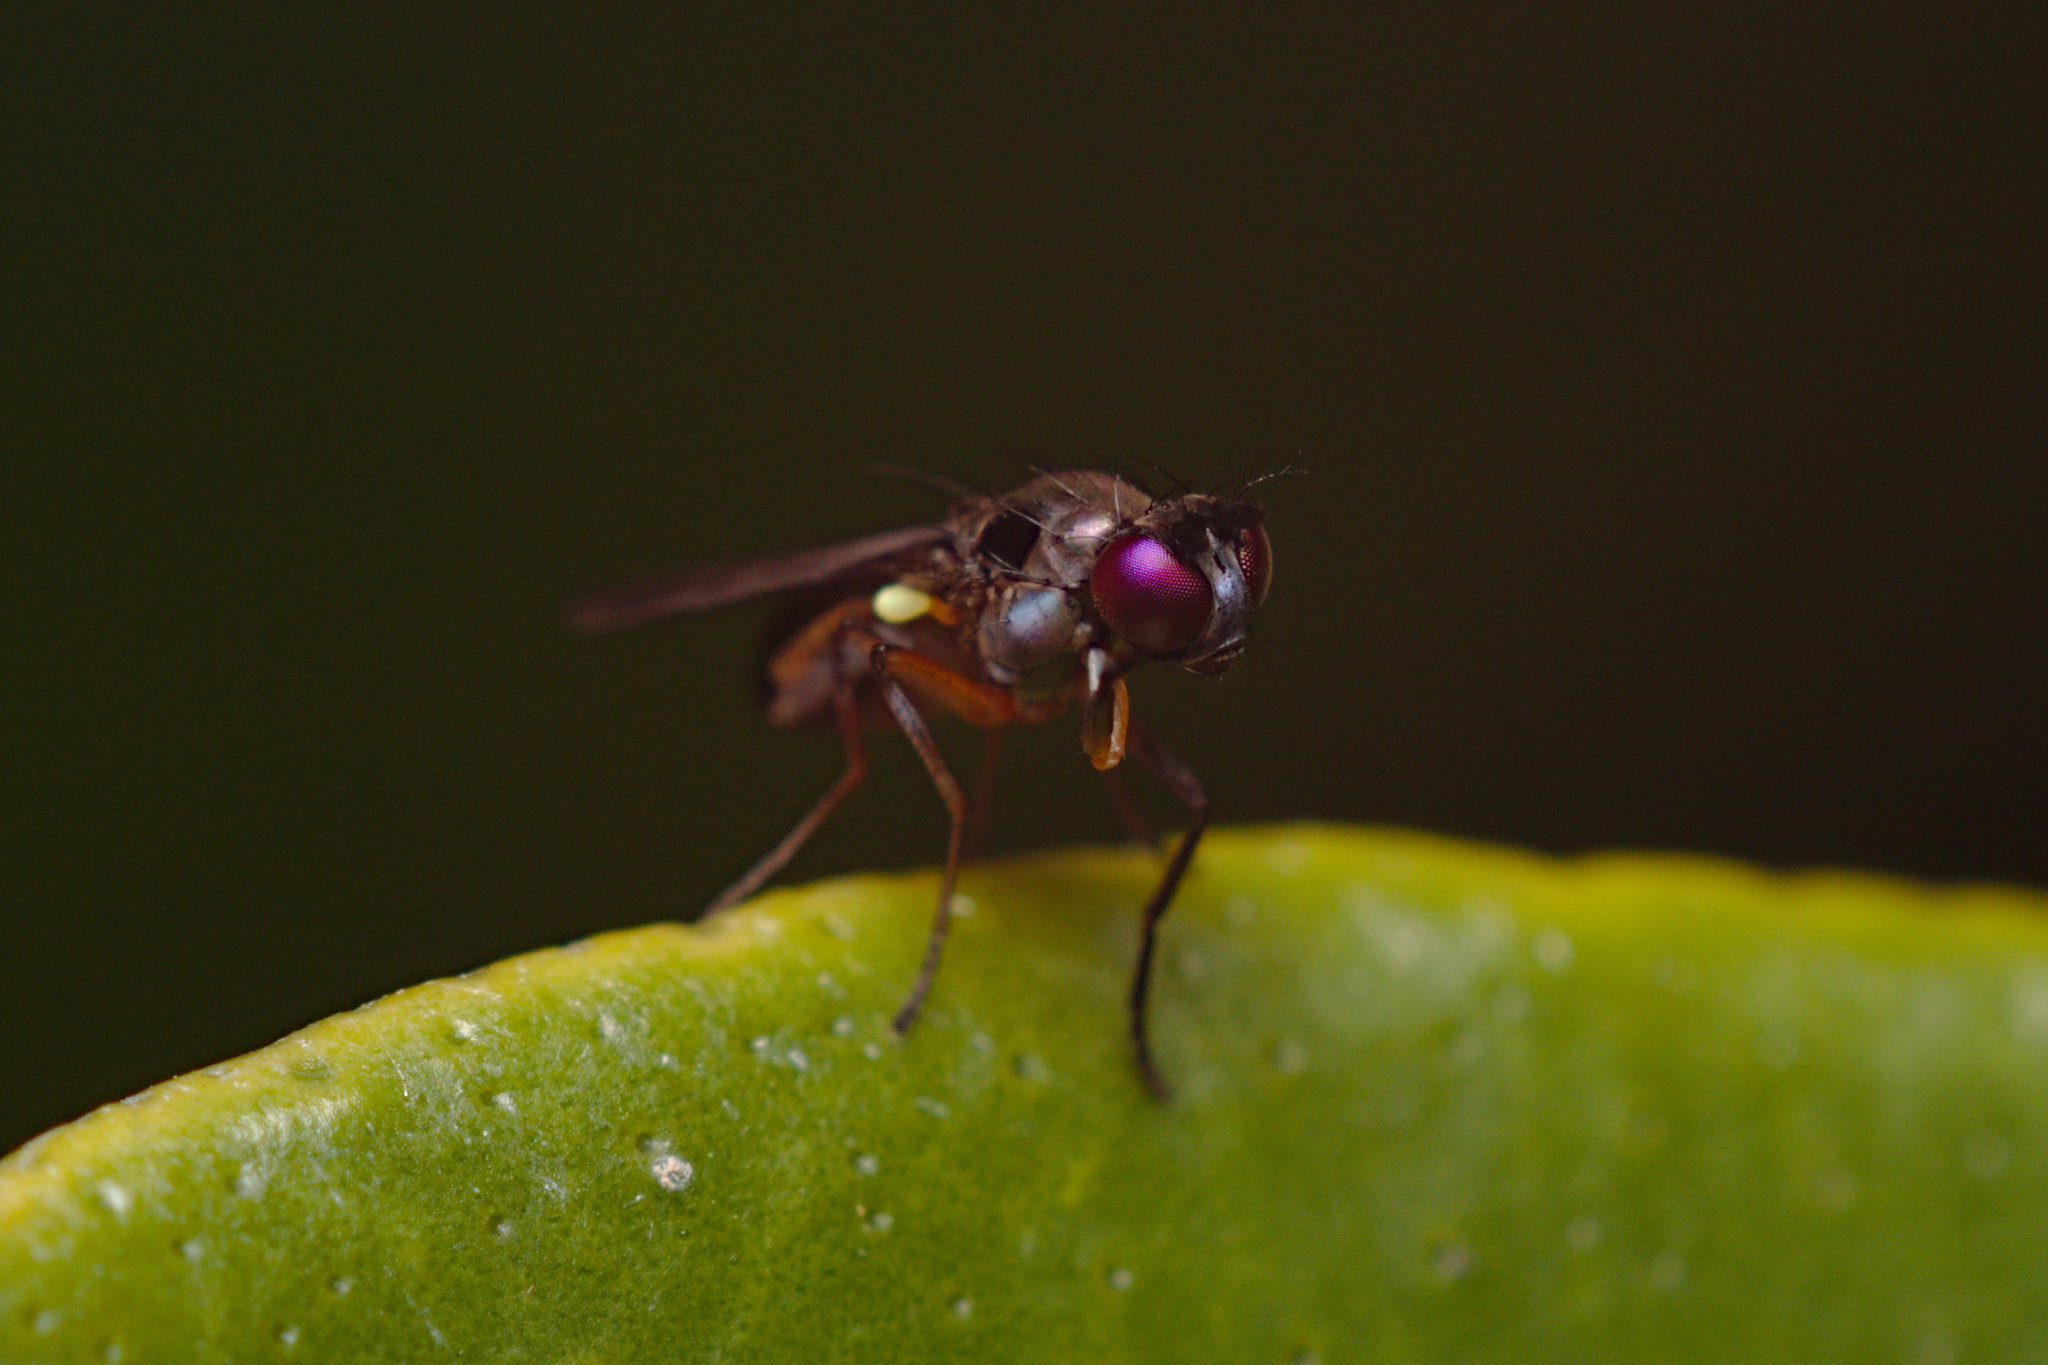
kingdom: Animalia
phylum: Arthropoda
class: Insecta
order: Diptera
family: Ephydridae
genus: Hydrellia
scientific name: Hydrellia tritici
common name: Shore fly
